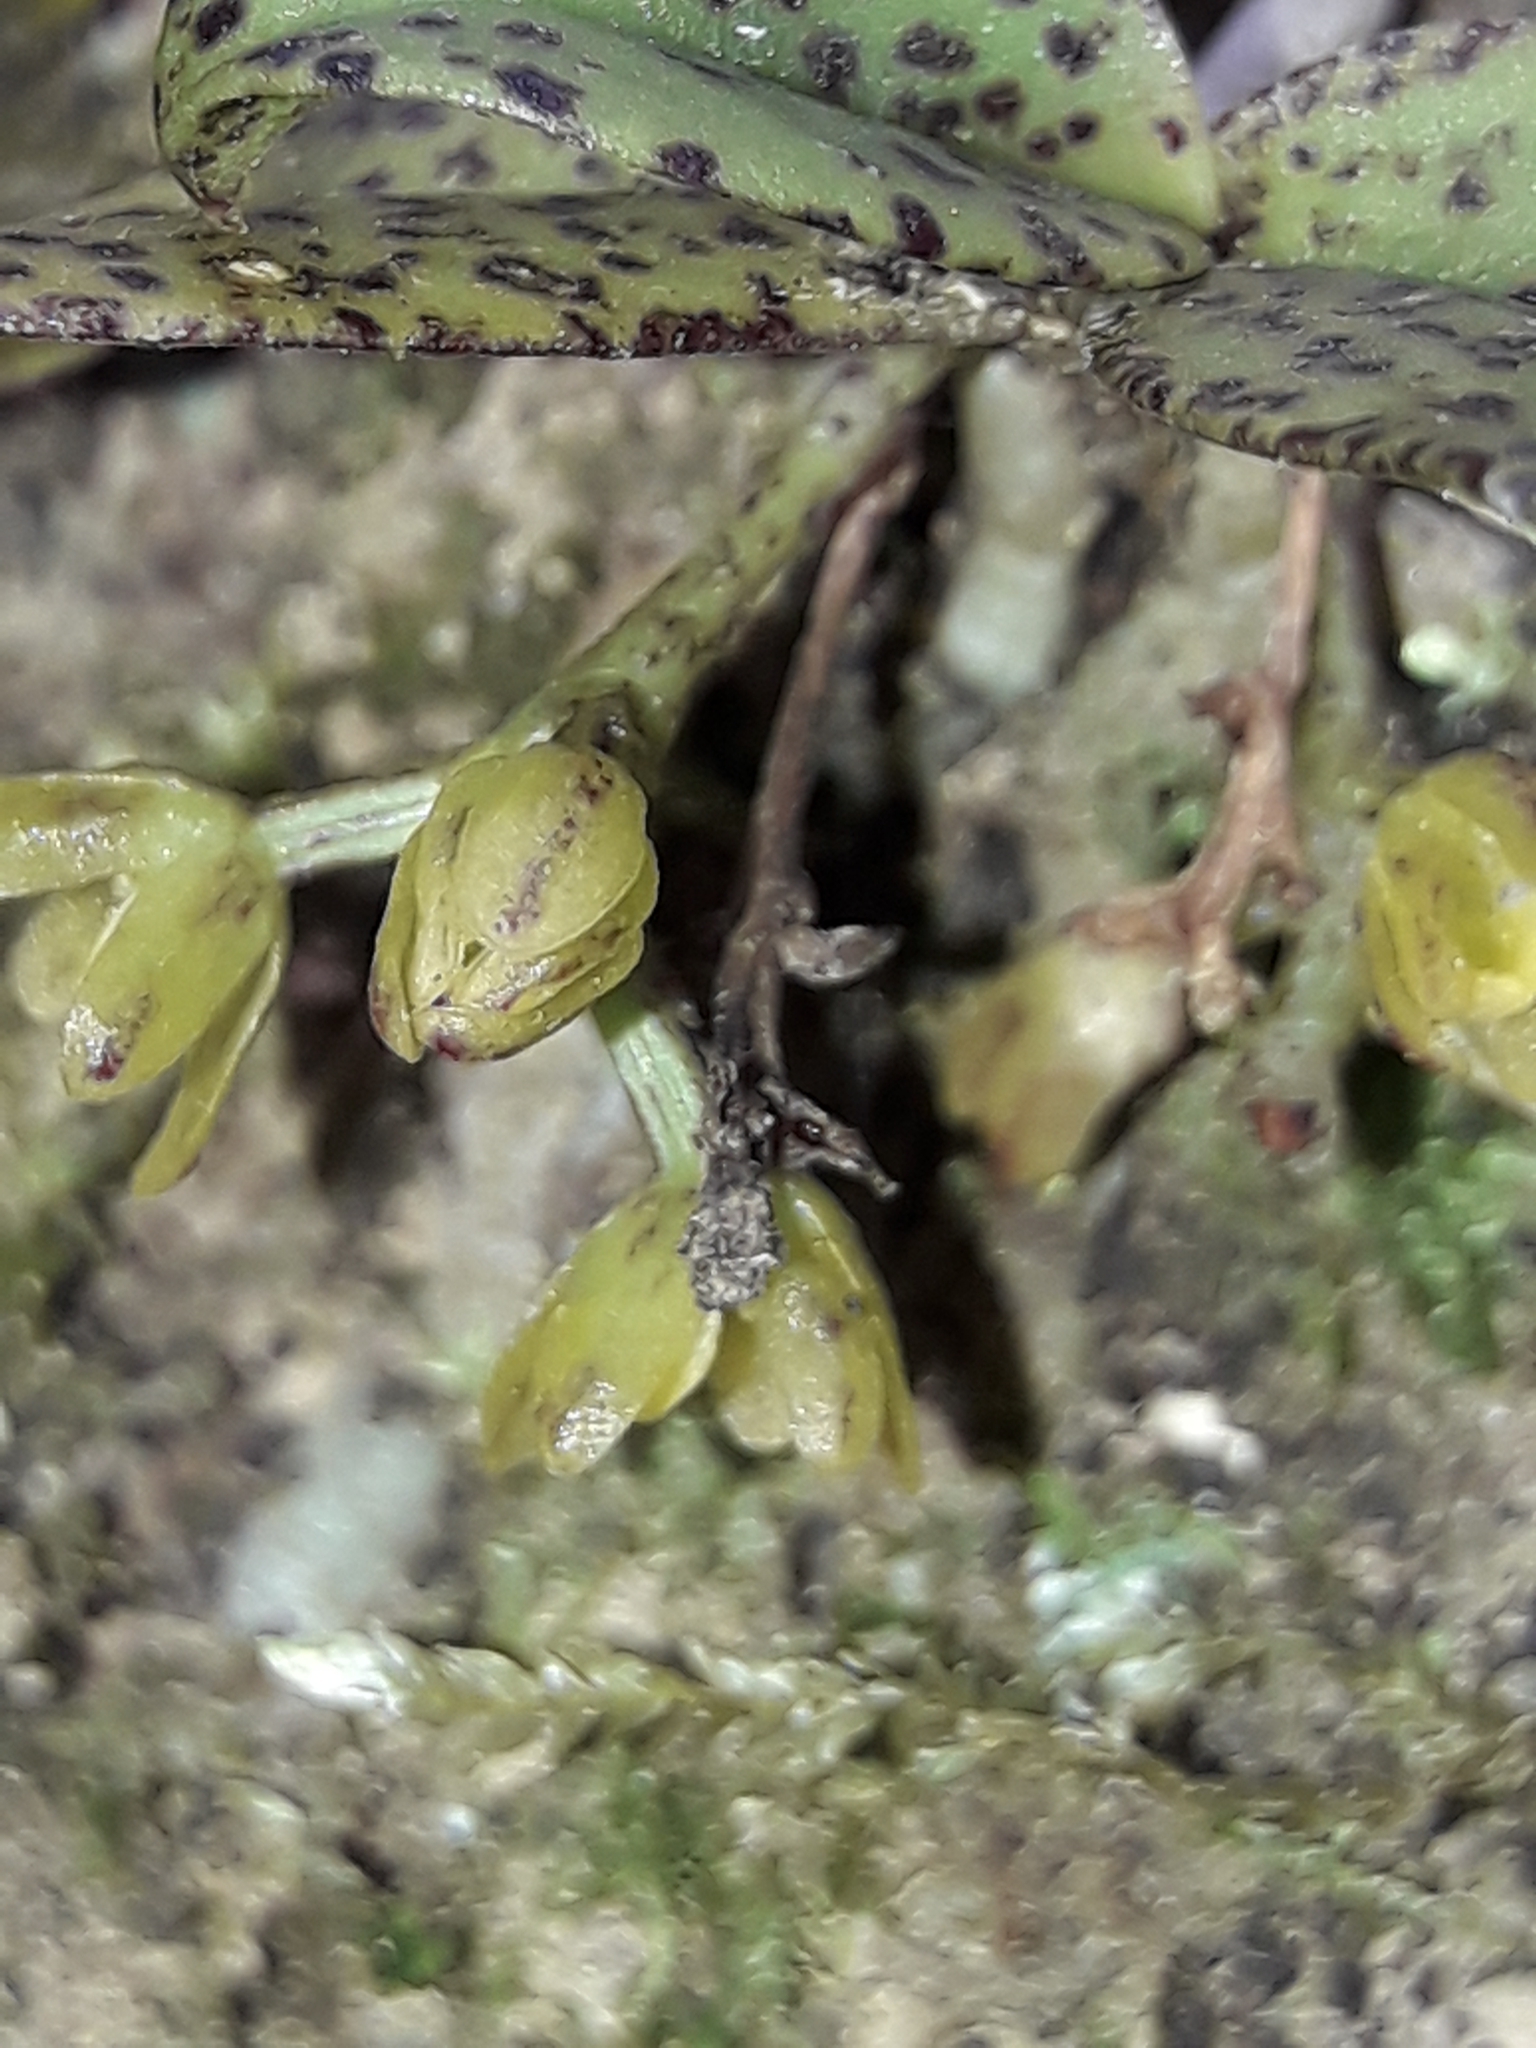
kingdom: Plantae
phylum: Tracheophyta
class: Liliopsida
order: Asparagales
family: Orchidaceae
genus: Drymoanthus
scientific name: Drymoanthus flavus
